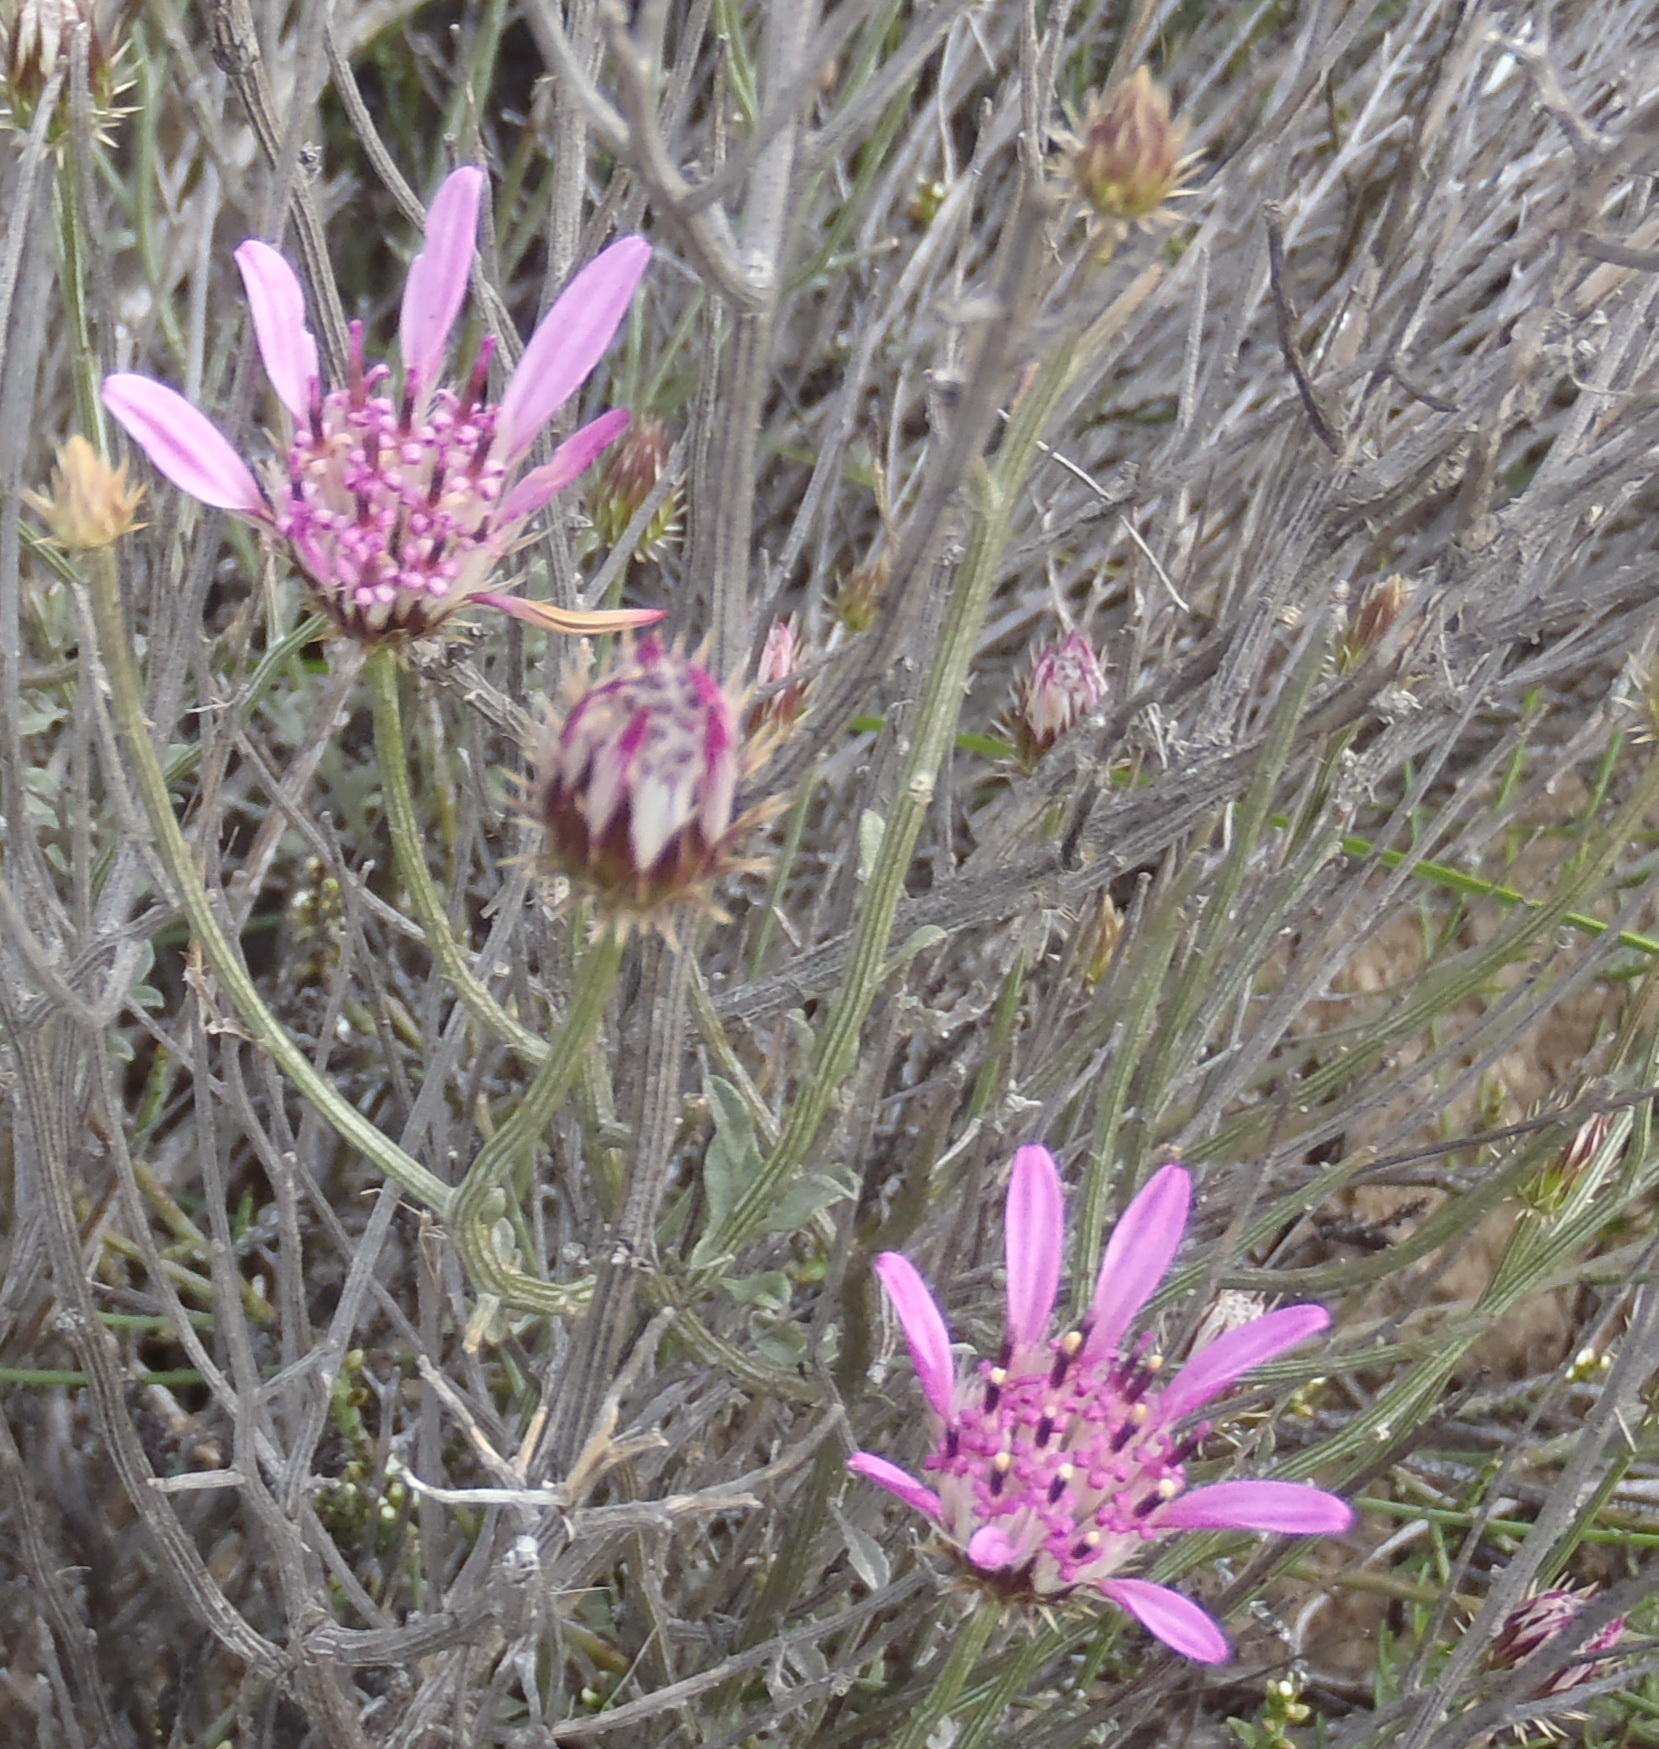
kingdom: Plantae
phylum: Tracheophyta
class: Magnoliopsida
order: Asterales
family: Asteraceae
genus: Dicoma
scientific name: Dicoma picta
